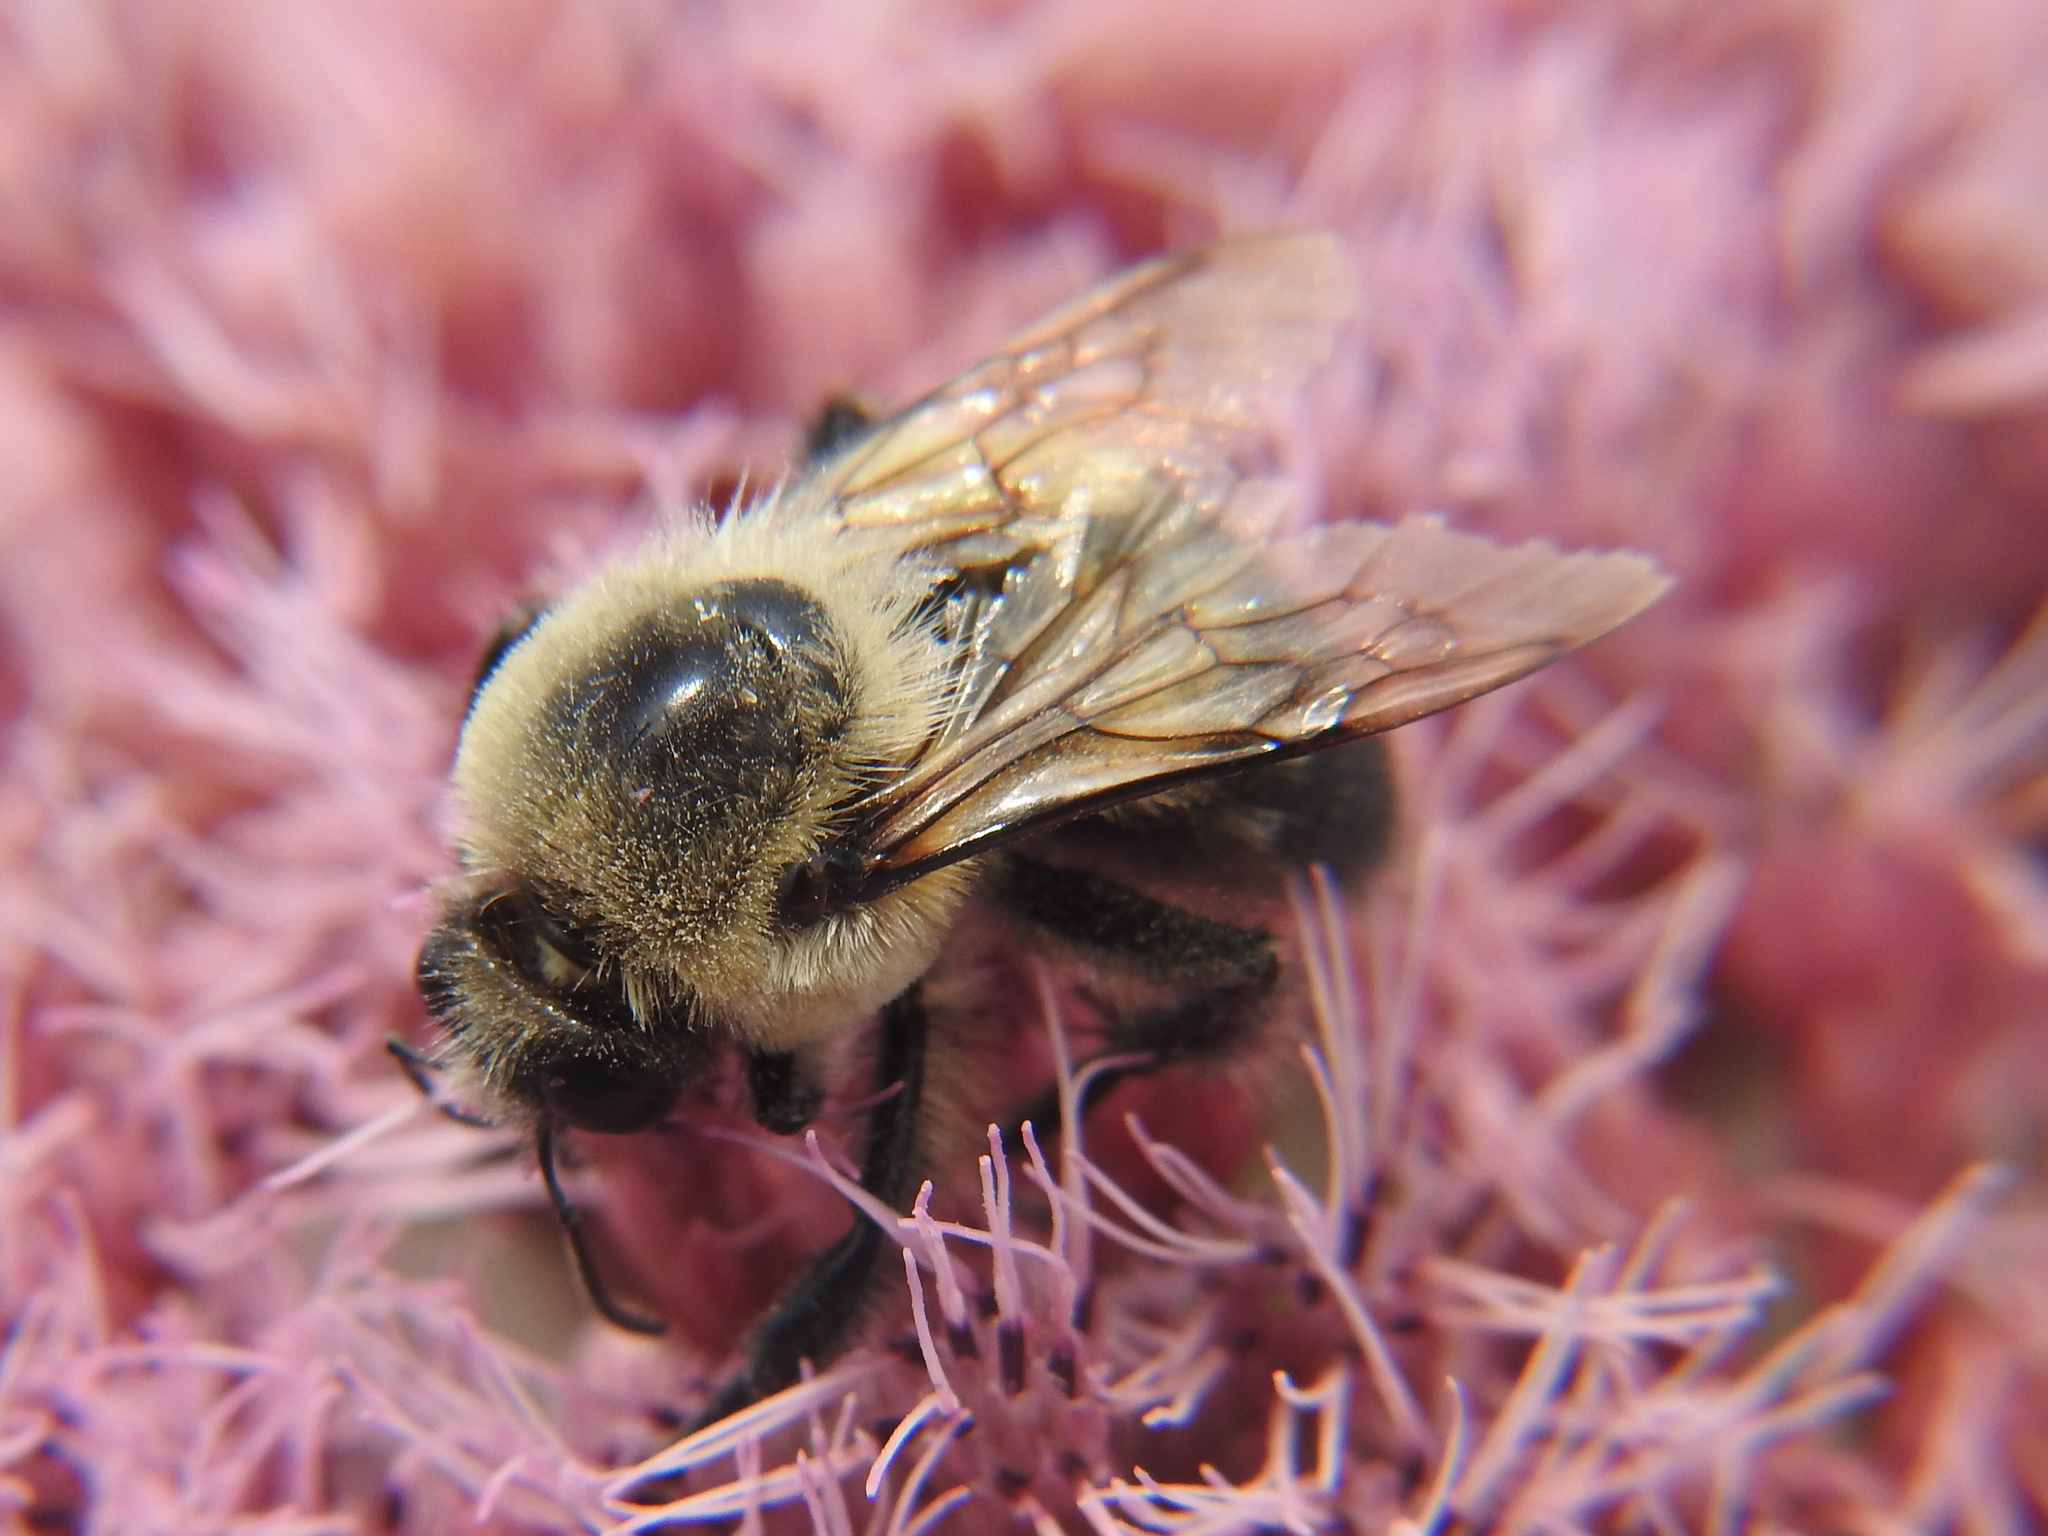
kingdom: Animalia
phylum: Arthropoda
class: Insecta
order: Hymenoptera
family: Apidae
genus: Bombus
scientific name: Bombus impatiens
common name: Common eastern bumble bee
